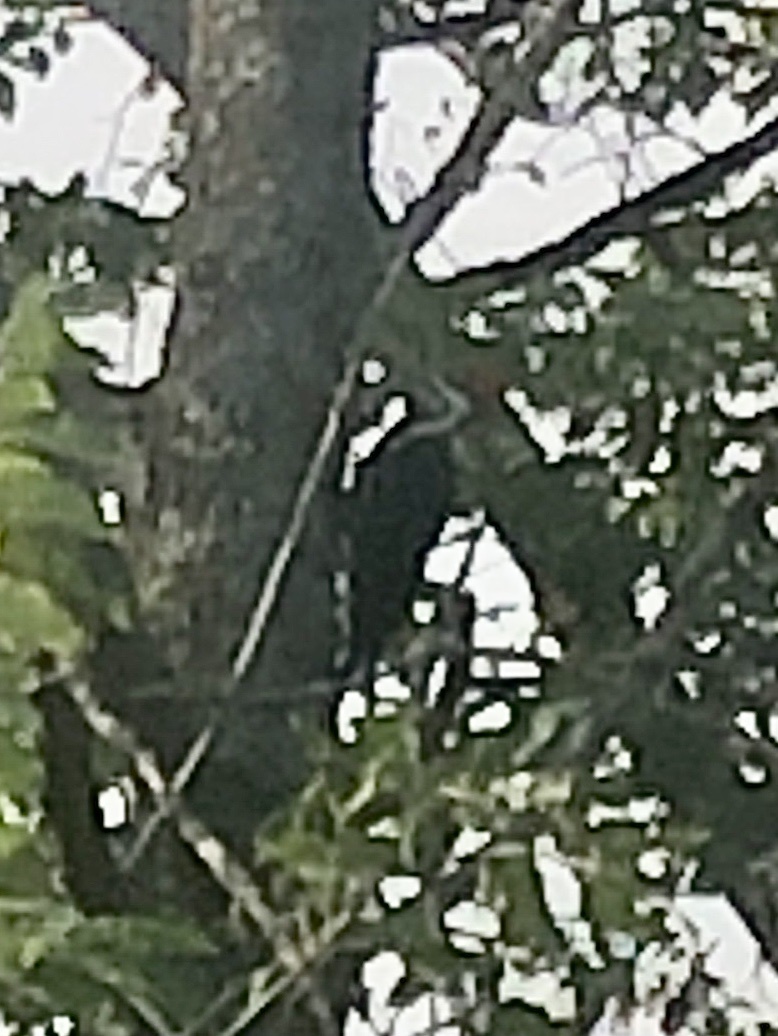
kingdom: Animalia
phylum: Chordata
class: Aves
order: Piciformes
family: Picidae
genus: Dryocopus
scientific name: Dryocopus pileatus
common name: Pileated woodpecker
